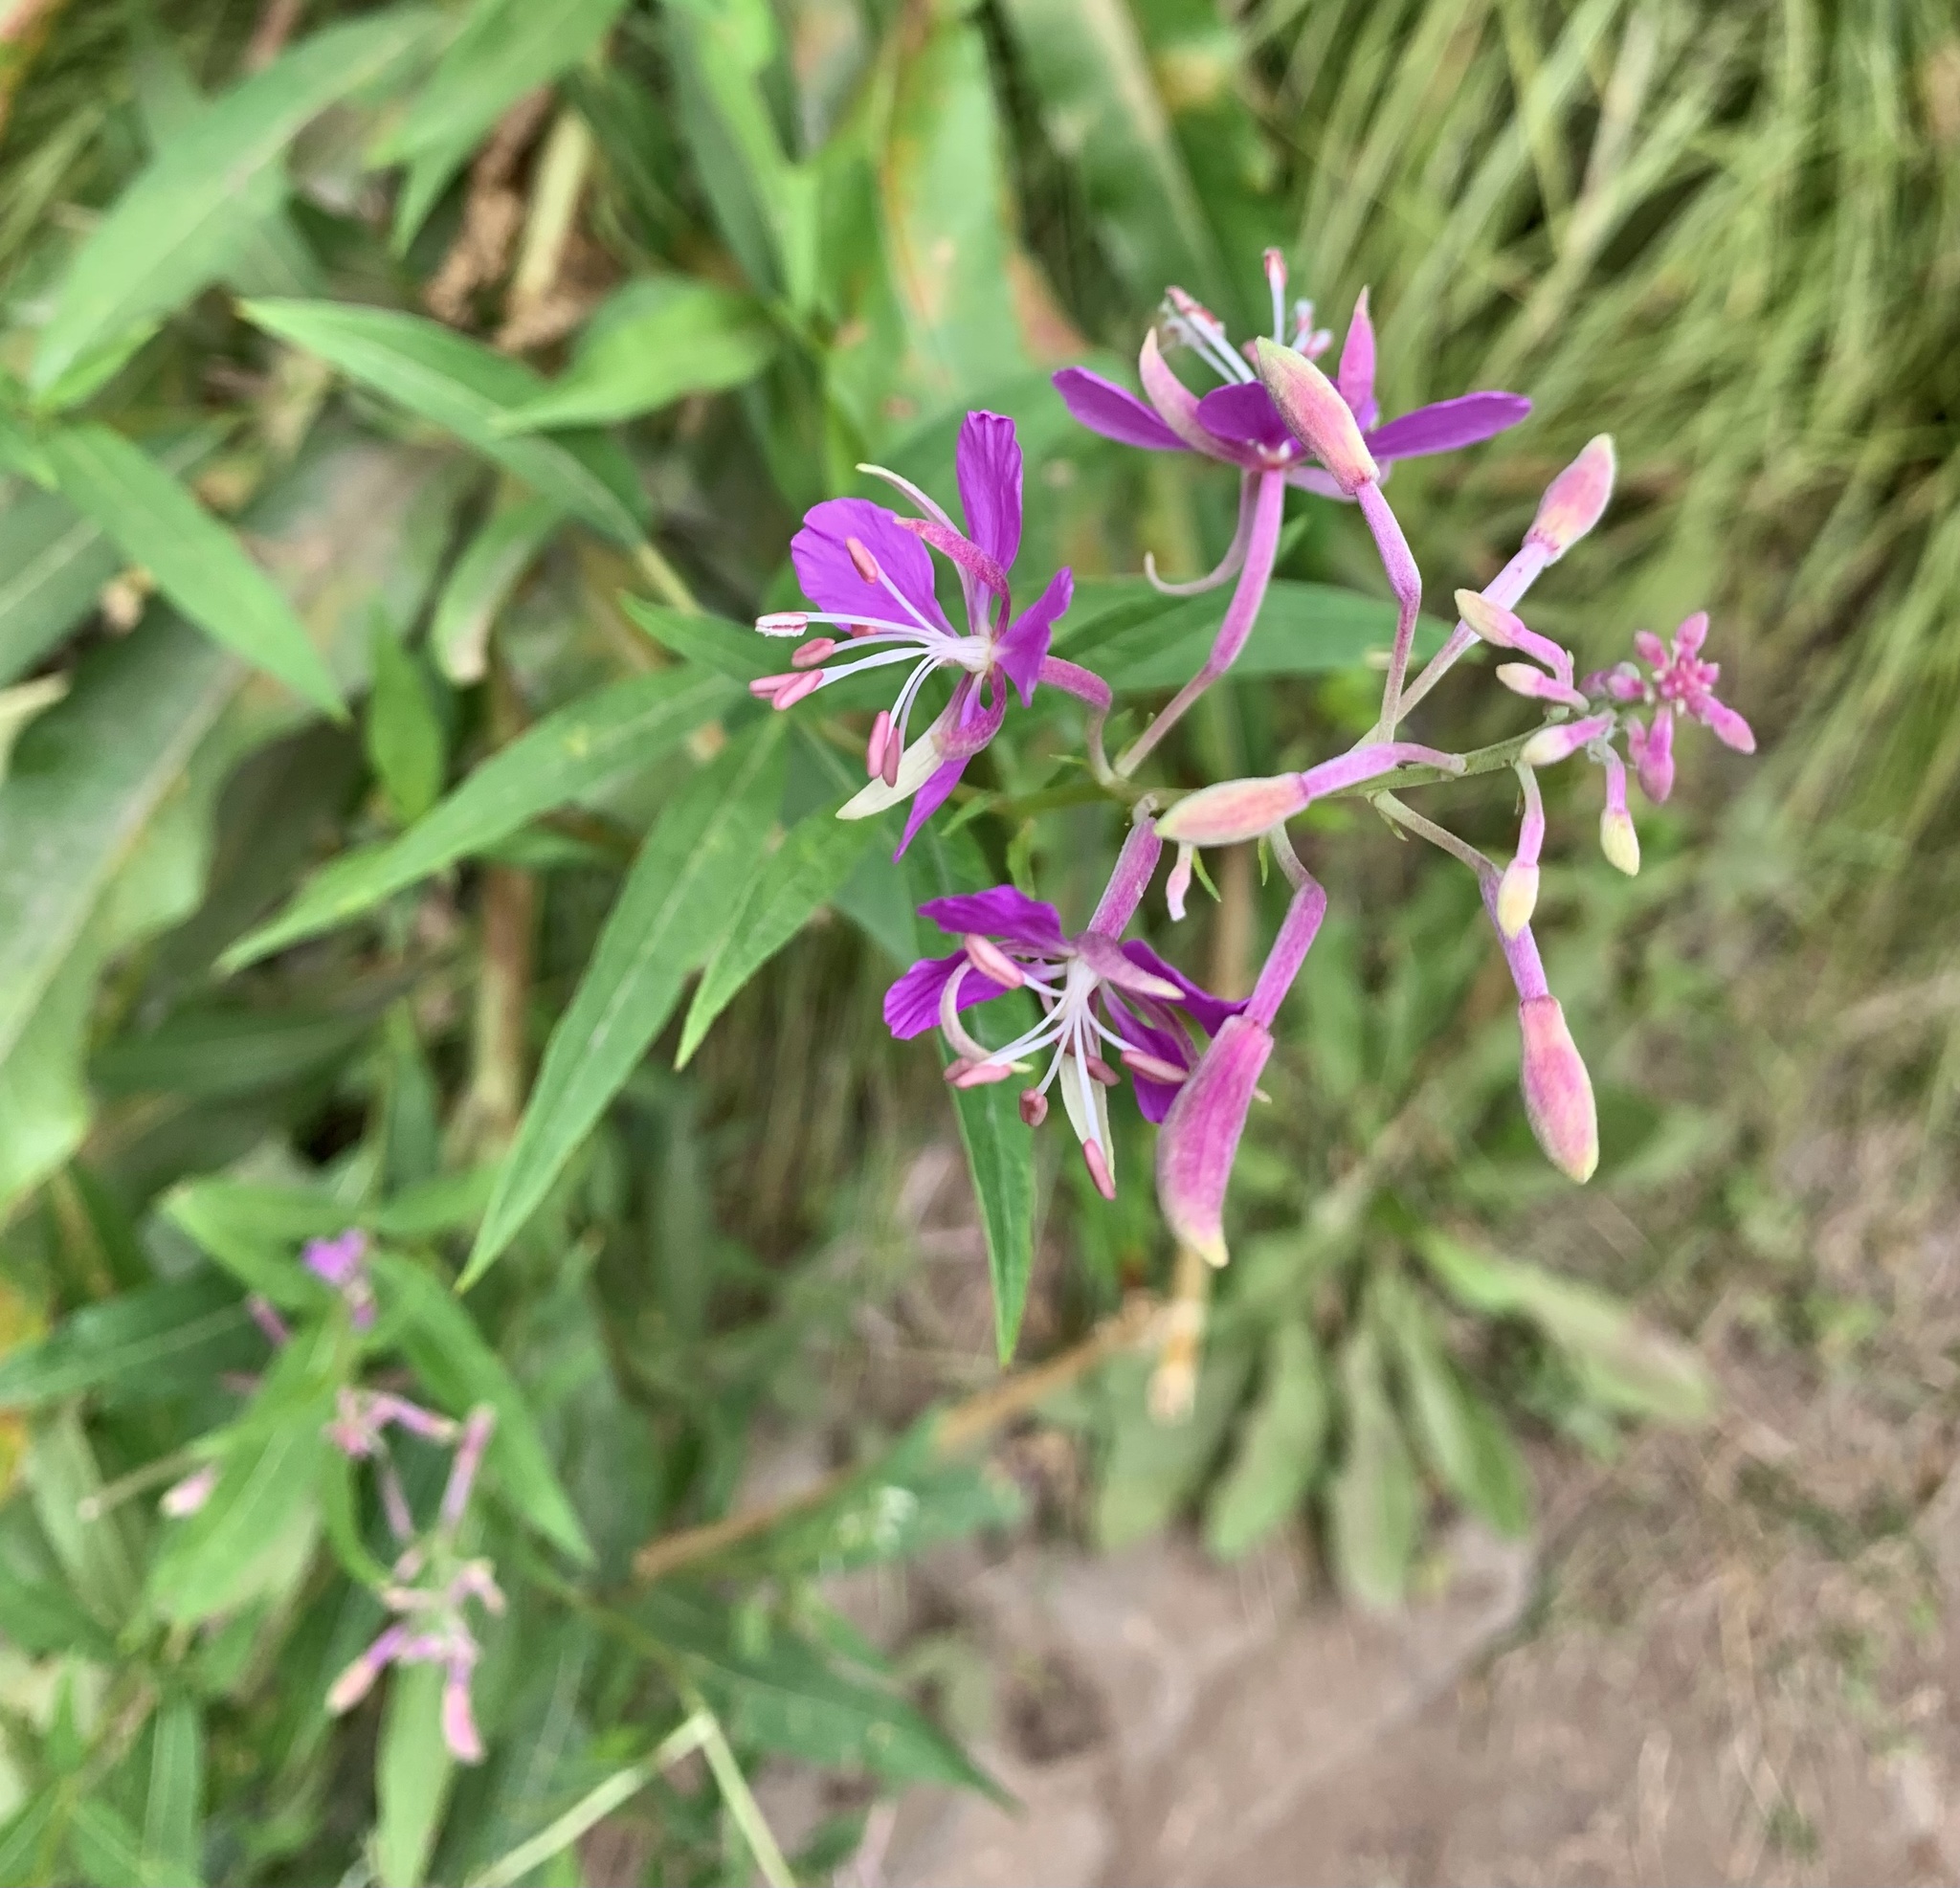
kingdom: Plantae
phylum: Tracheophyta
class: Magnoliopsida
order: Myrtales
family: Onagraceae
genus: Chamaenerion
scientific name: Chamaenerion angustifolium
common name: Fireweed
